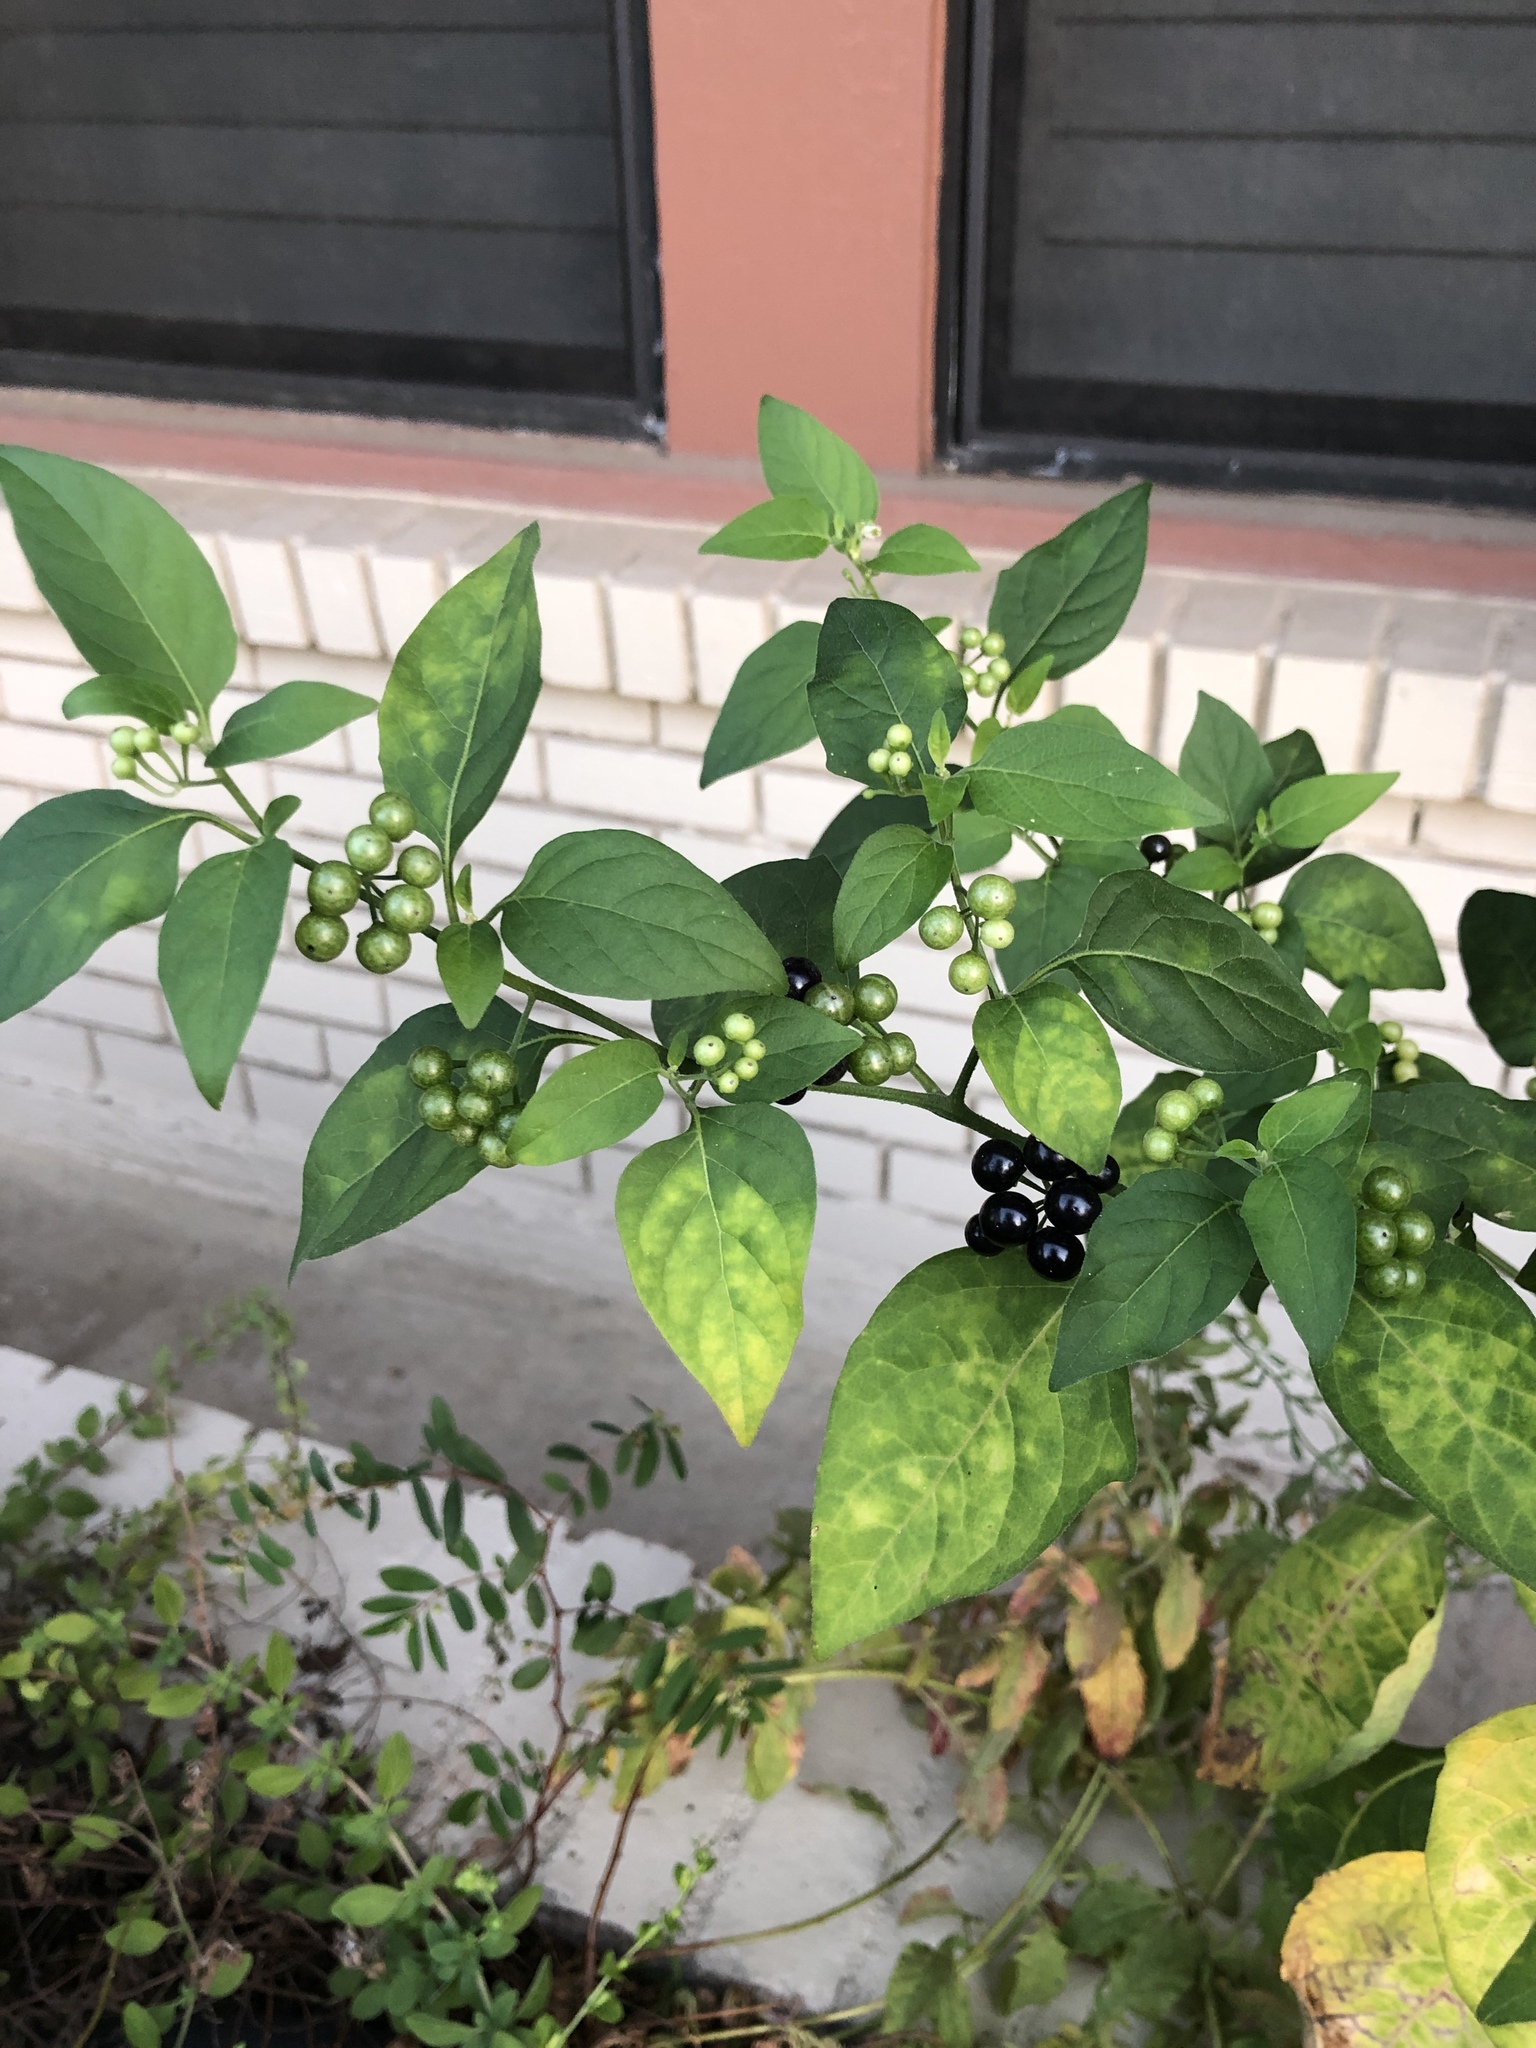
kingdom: Plantae
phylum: Tracheophyta
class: Magnoliopsida
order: Solanales
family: Solanaceae
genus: Solanum
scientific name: Solanum americanum
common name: American black nightshade
